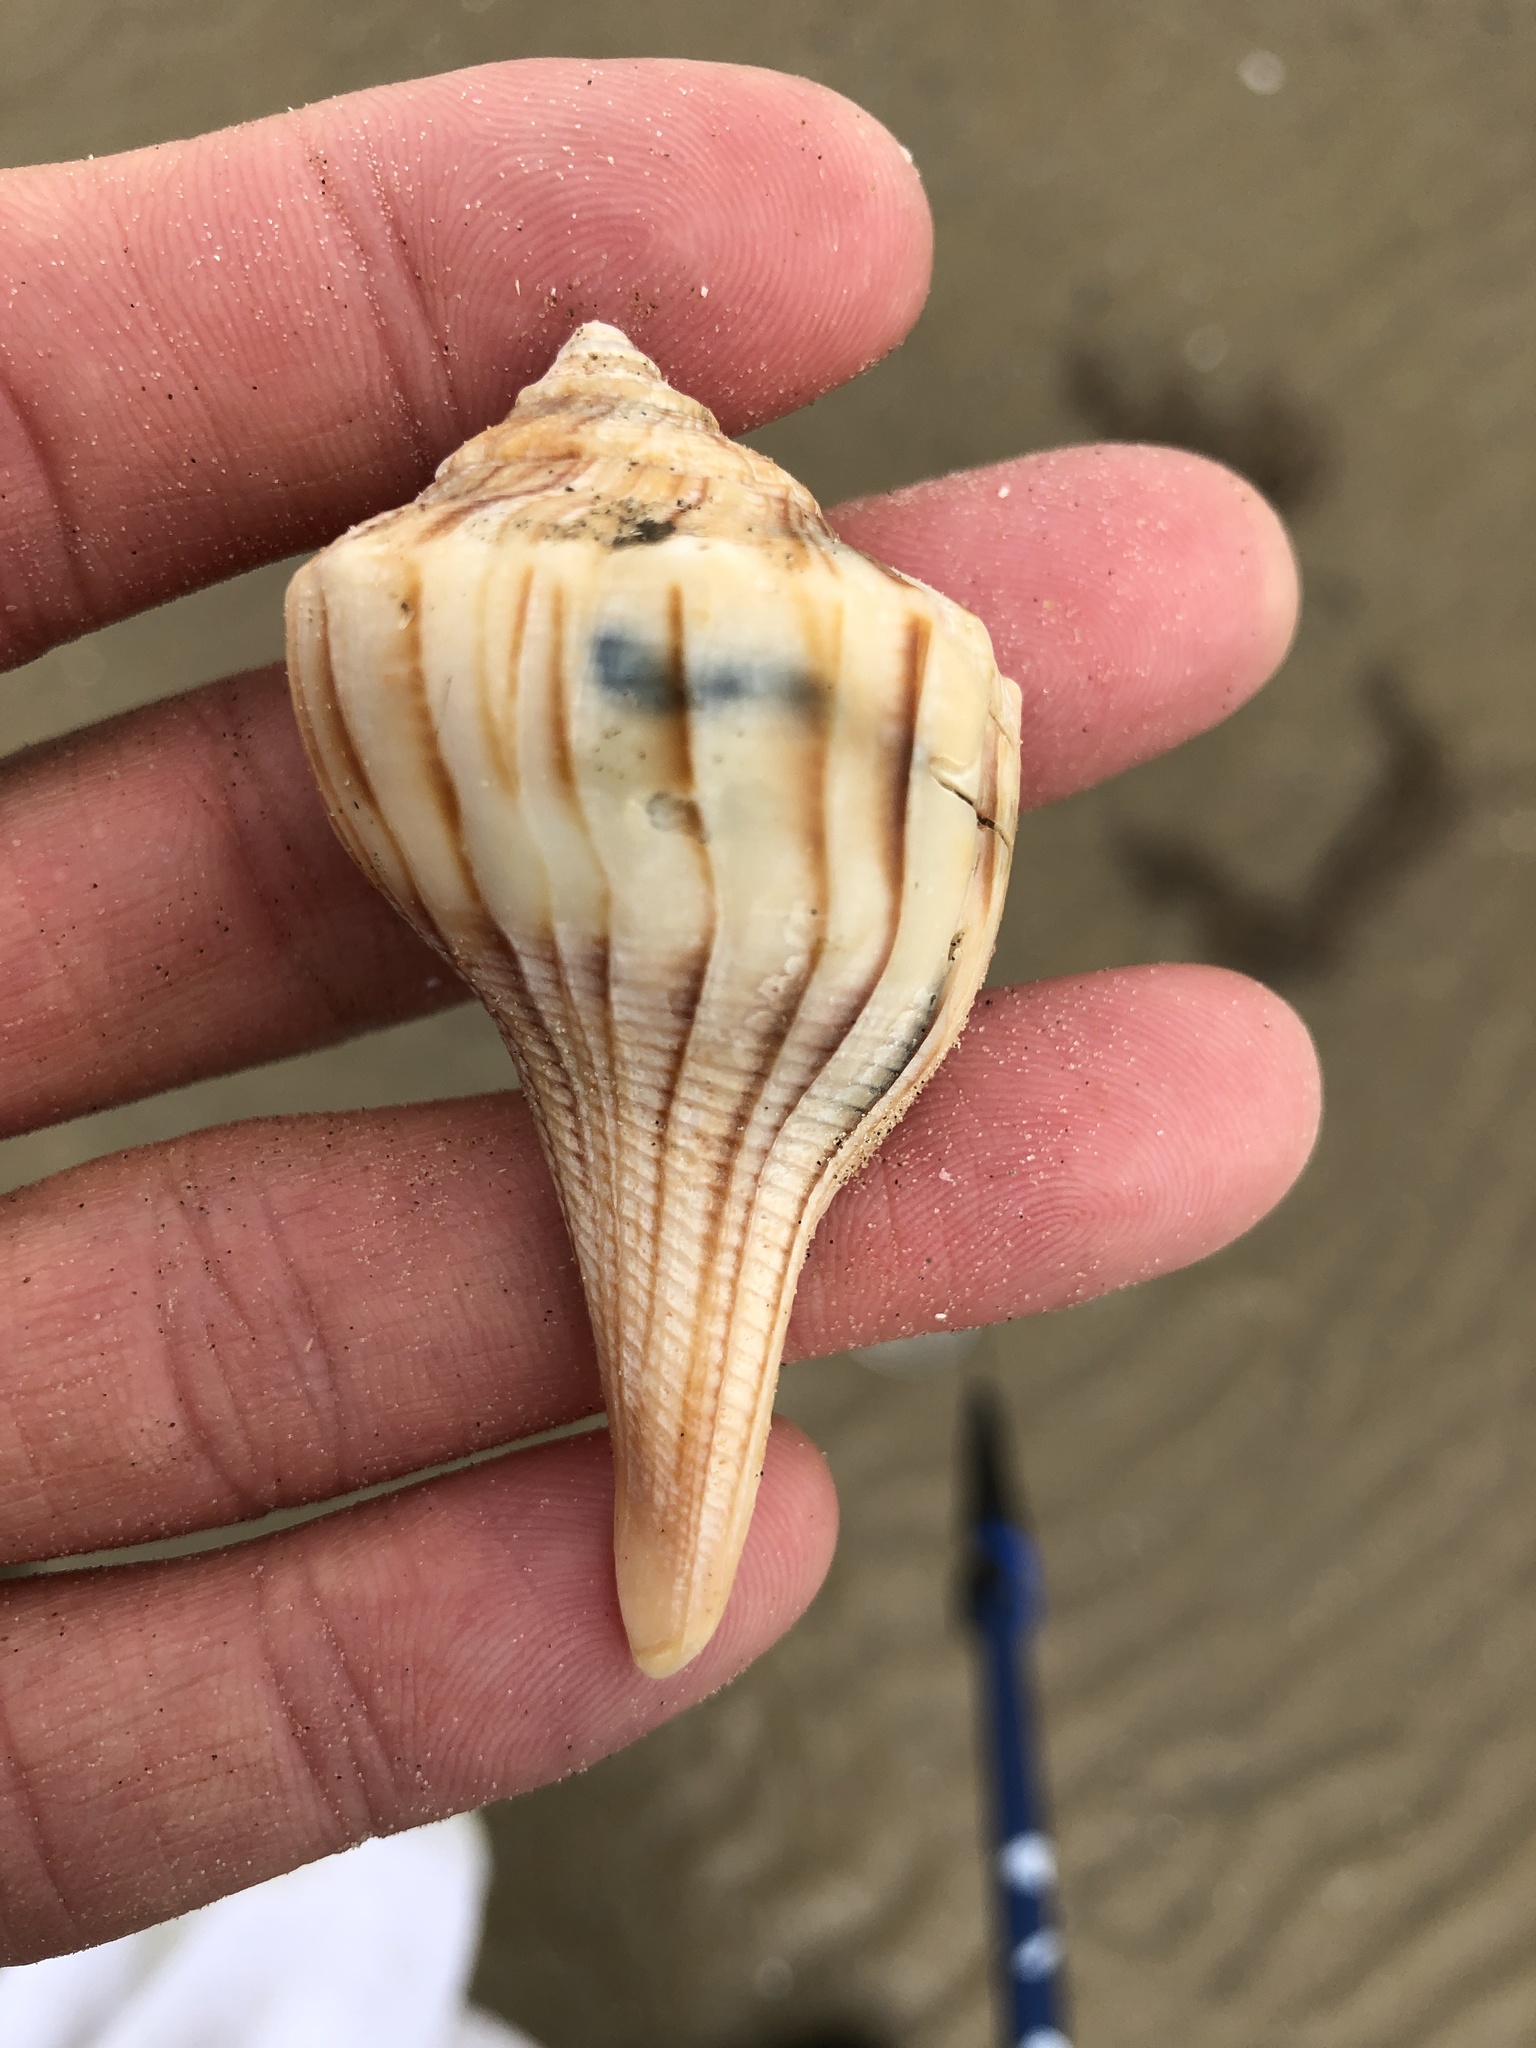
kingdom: Animalia
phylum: Mollusca
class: Gastropoda
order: Neogastropoda
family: Busyconidae
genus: Sinistrofulgur
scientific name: Sinistrofulgur pulleyi
